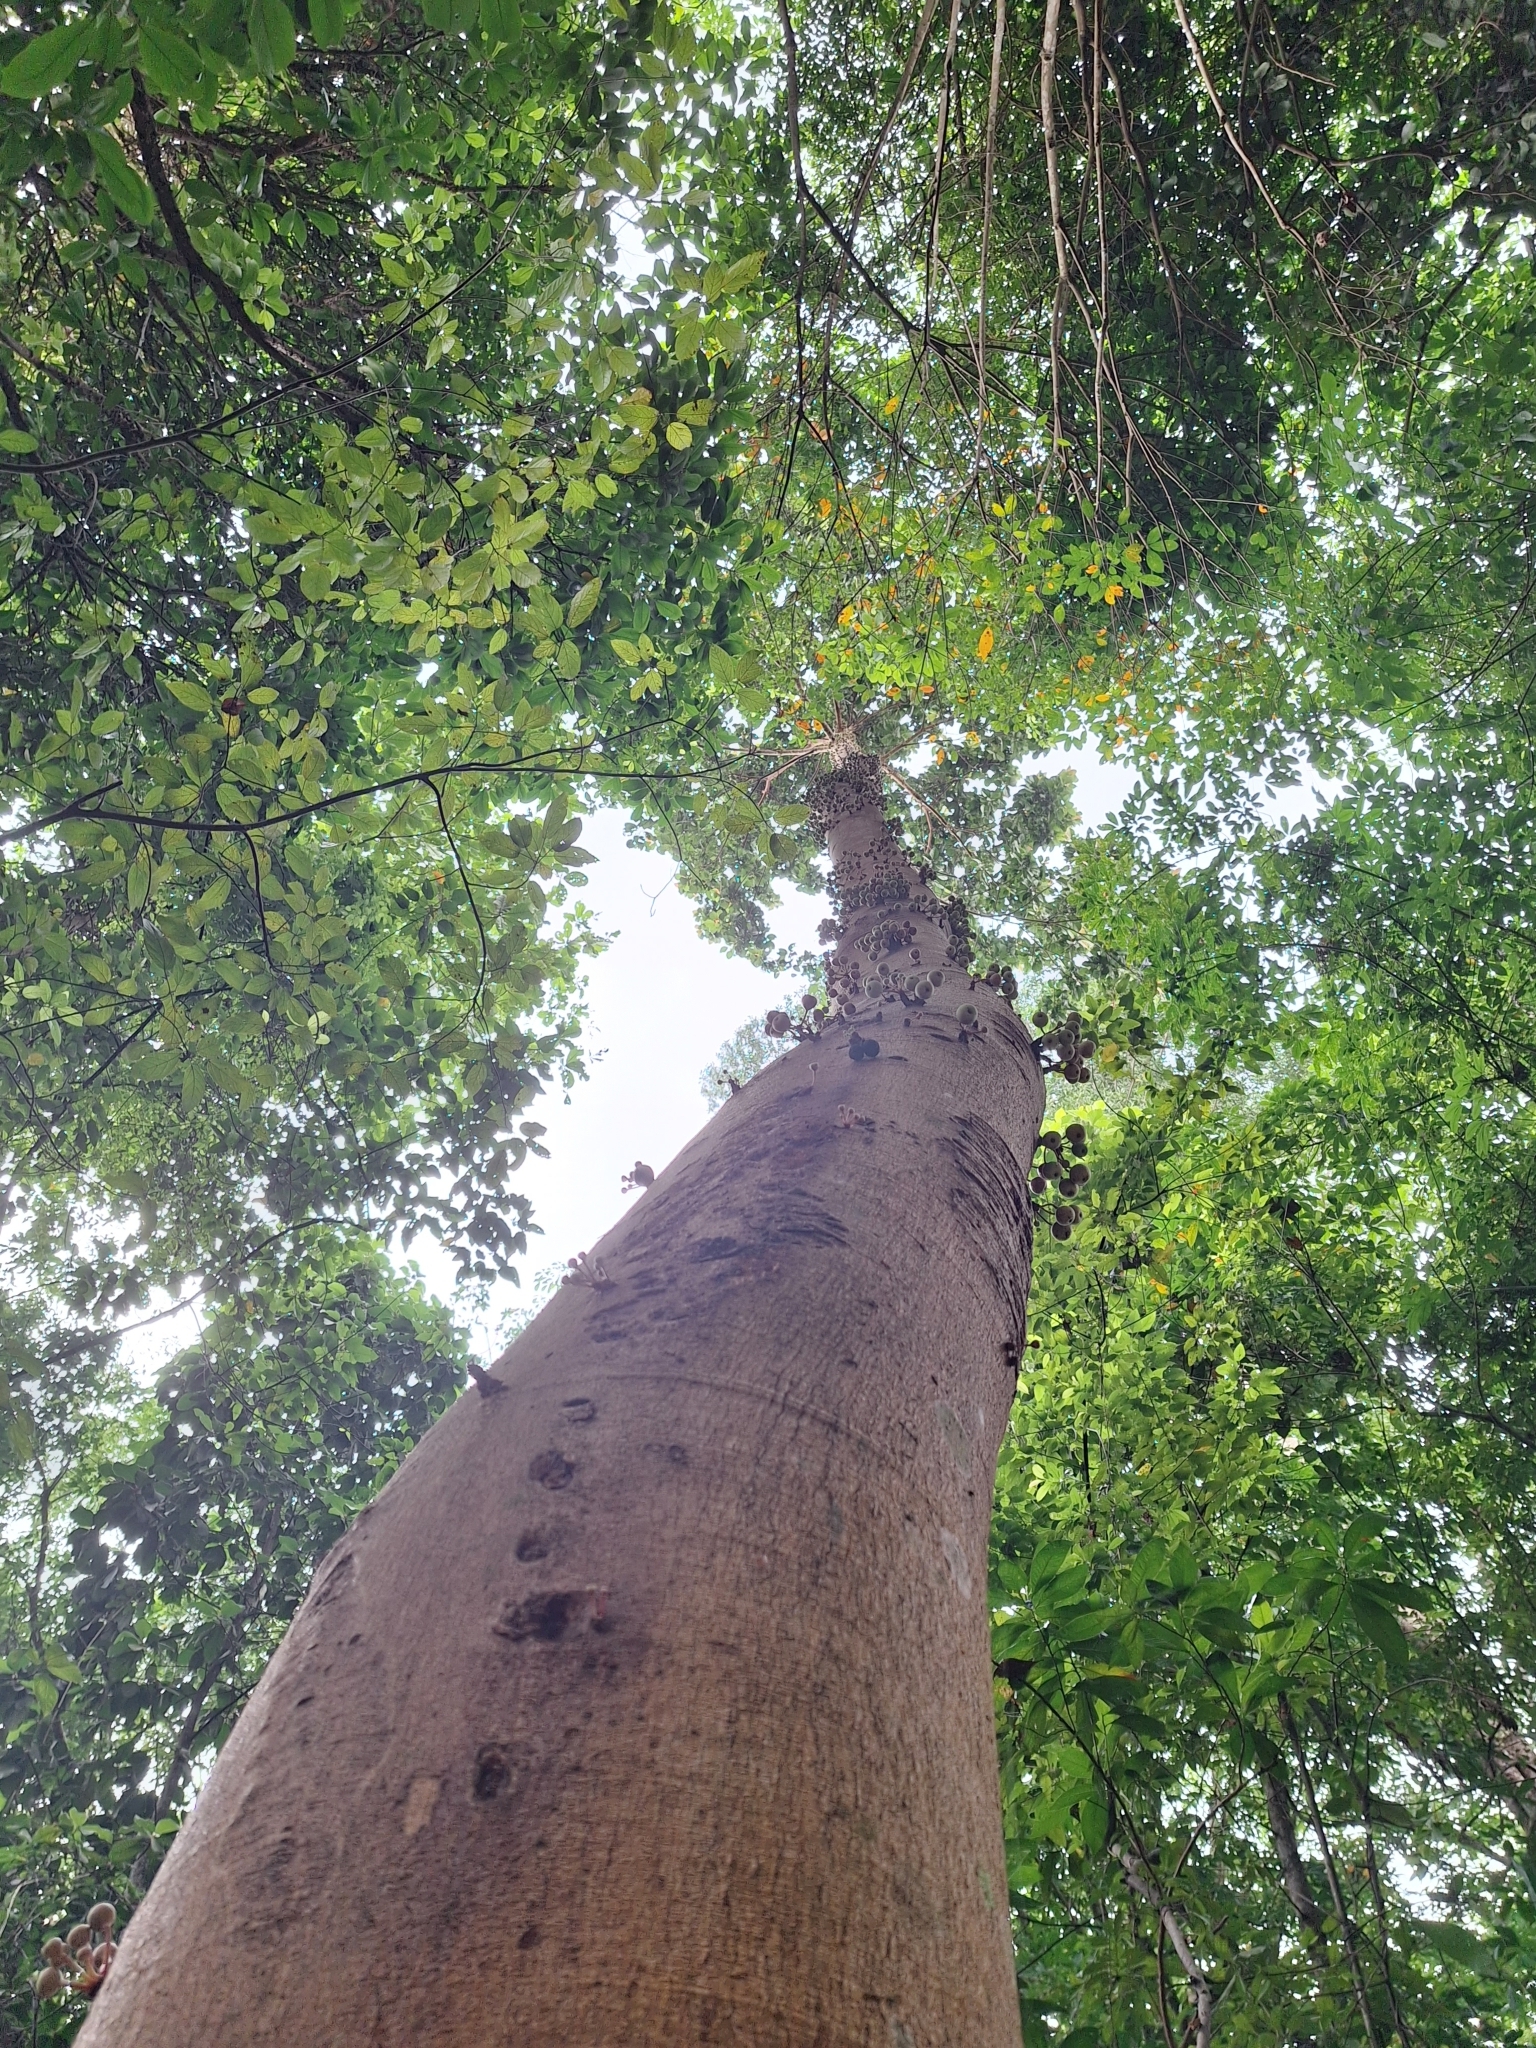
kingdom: Plantae
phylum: Tracheophyta
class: Magnoliopsida
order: Rosales
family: Moraceae
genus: Ficus
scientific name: Ficus variegata
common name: Variegated fig
